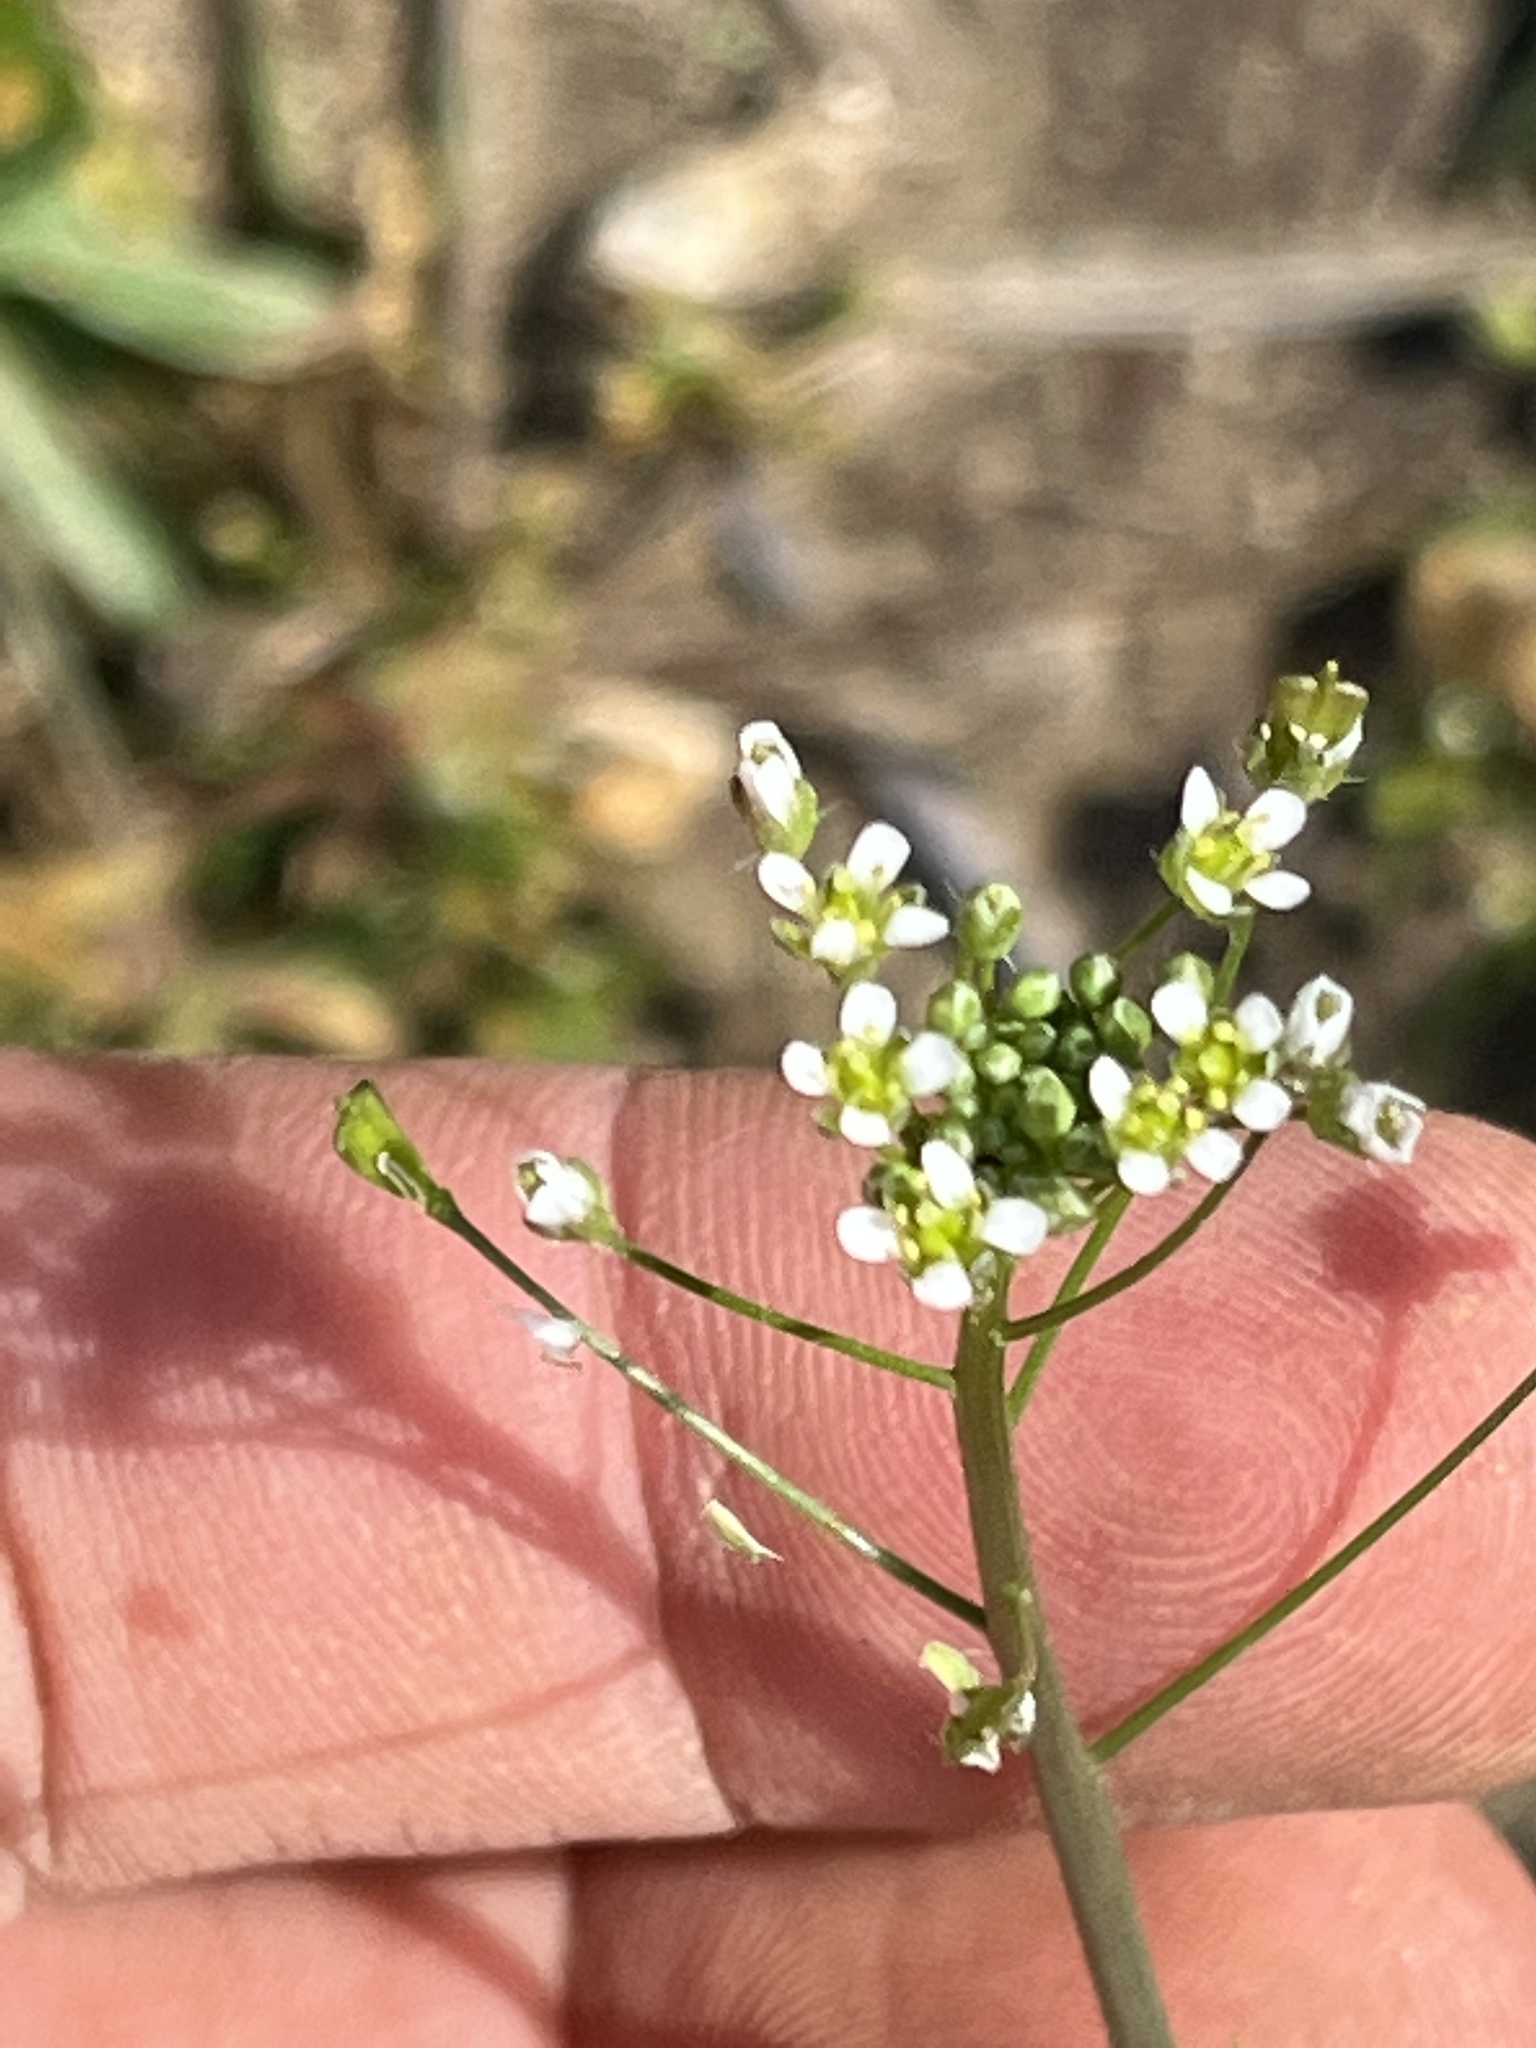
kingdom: Plantae
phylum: Tracheophyta
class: Magnoliopsida
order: Brassicales
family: Brassicaceae
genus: Capsella
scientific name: Capsella bursa-pastoris
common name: Shepherd's purse
